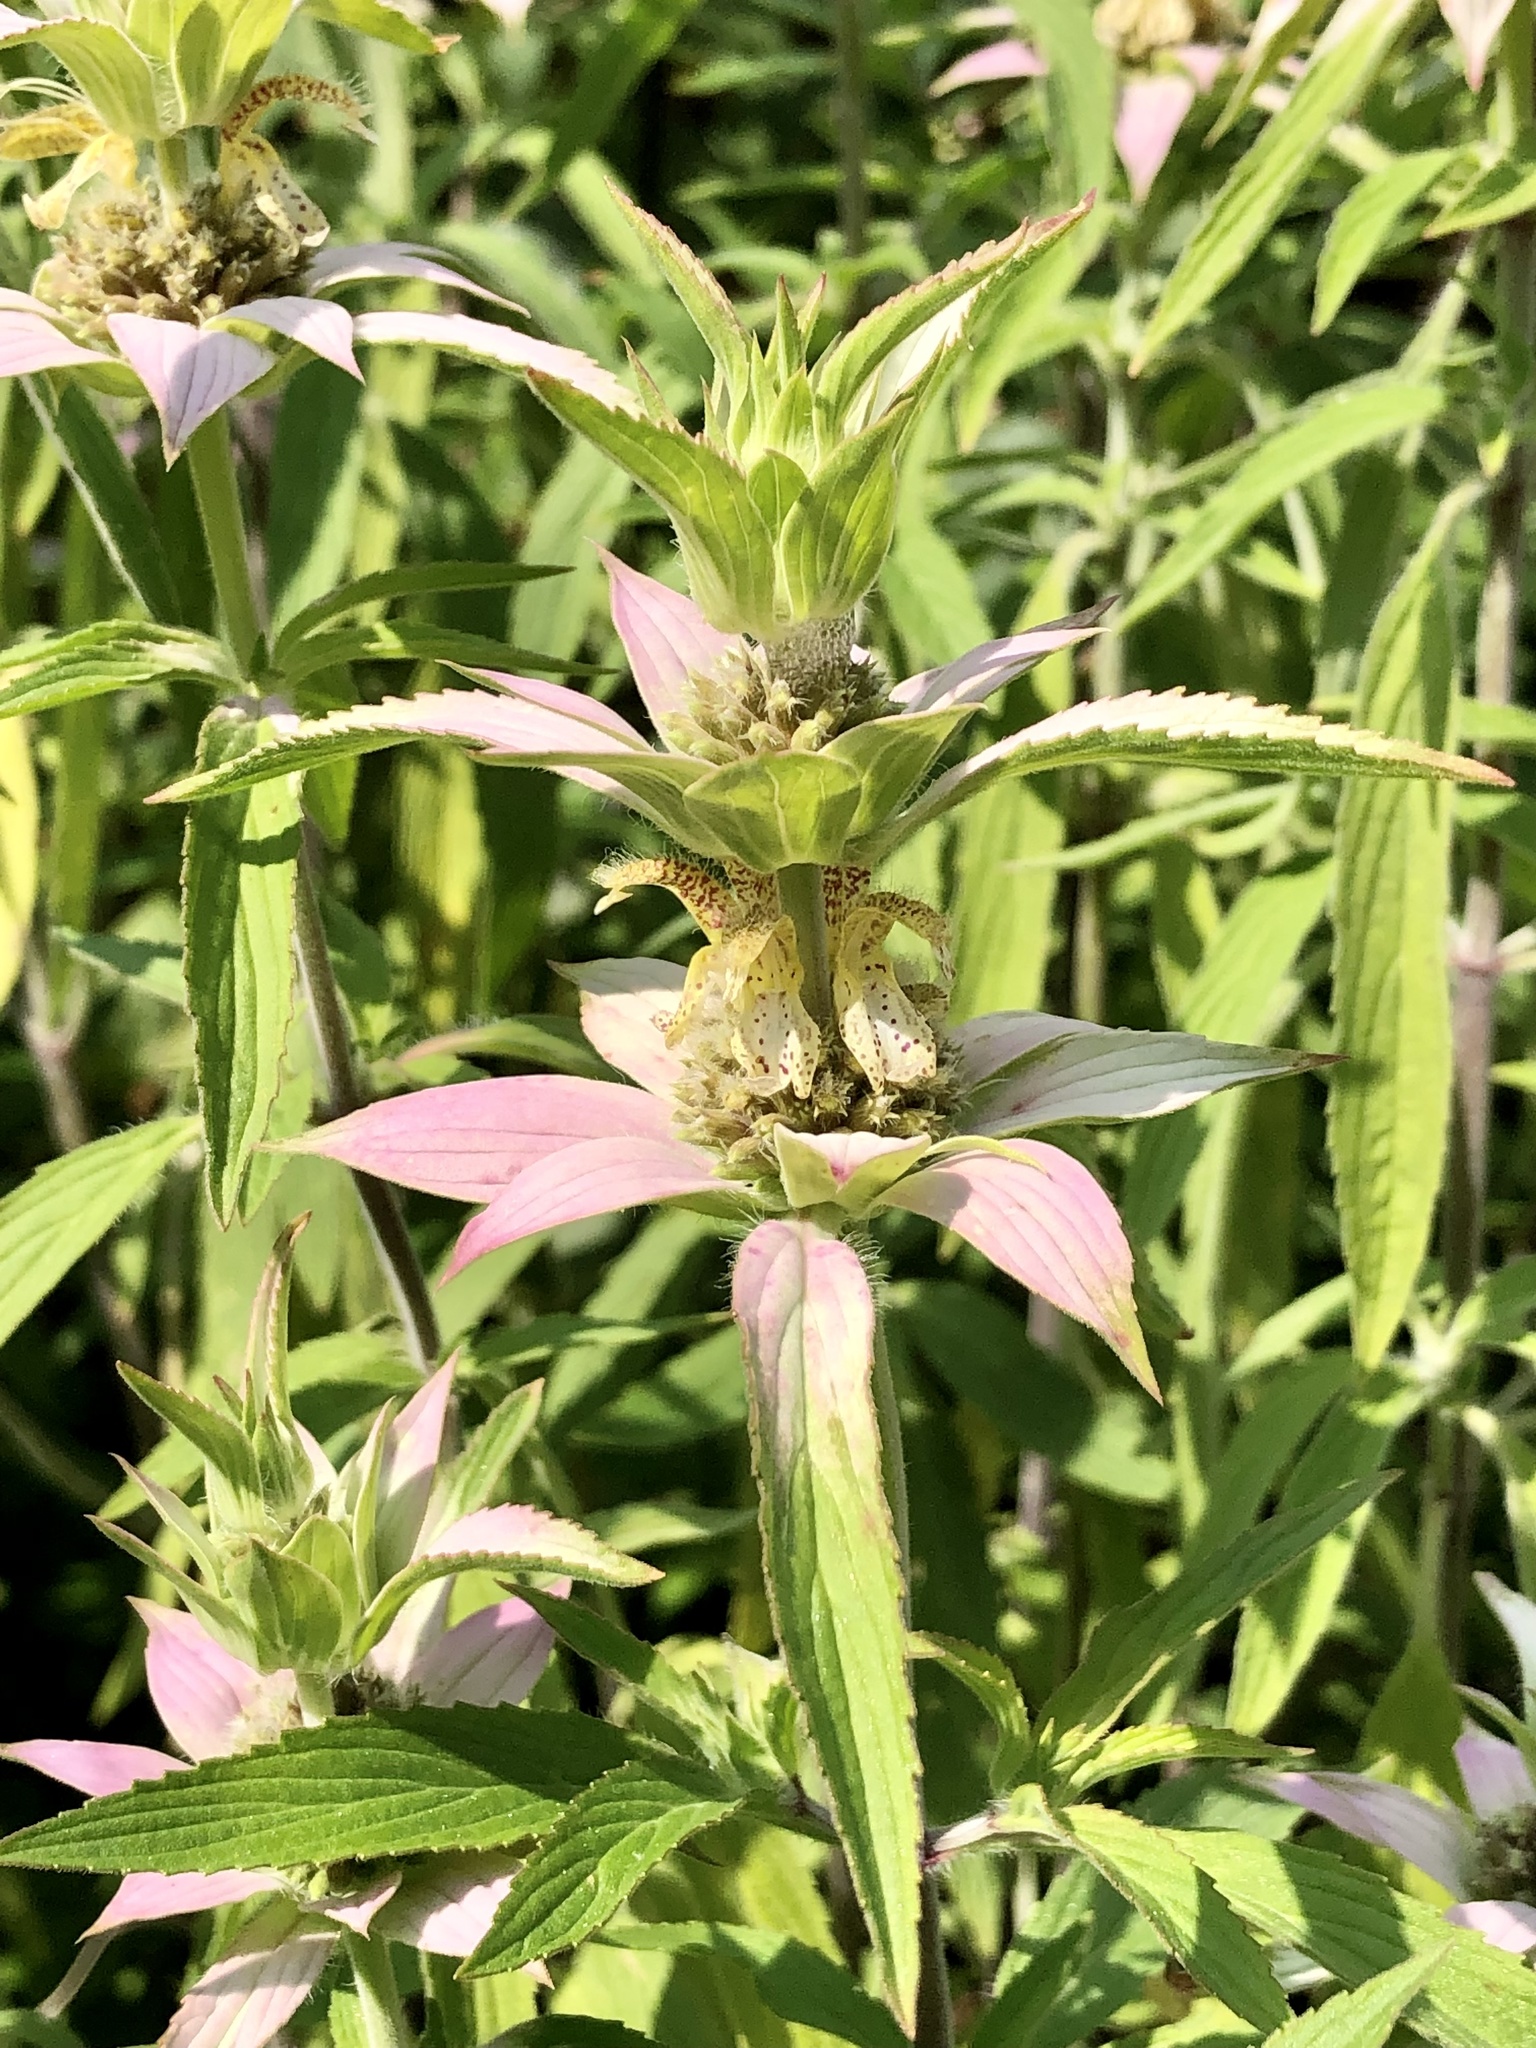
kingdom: Plantae
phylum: Tracheophyta
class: Magnoliopsida
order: Lamiales
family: Lamiaceae
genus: Monarda
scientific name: Monarda punctata
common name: Dotted monarda
